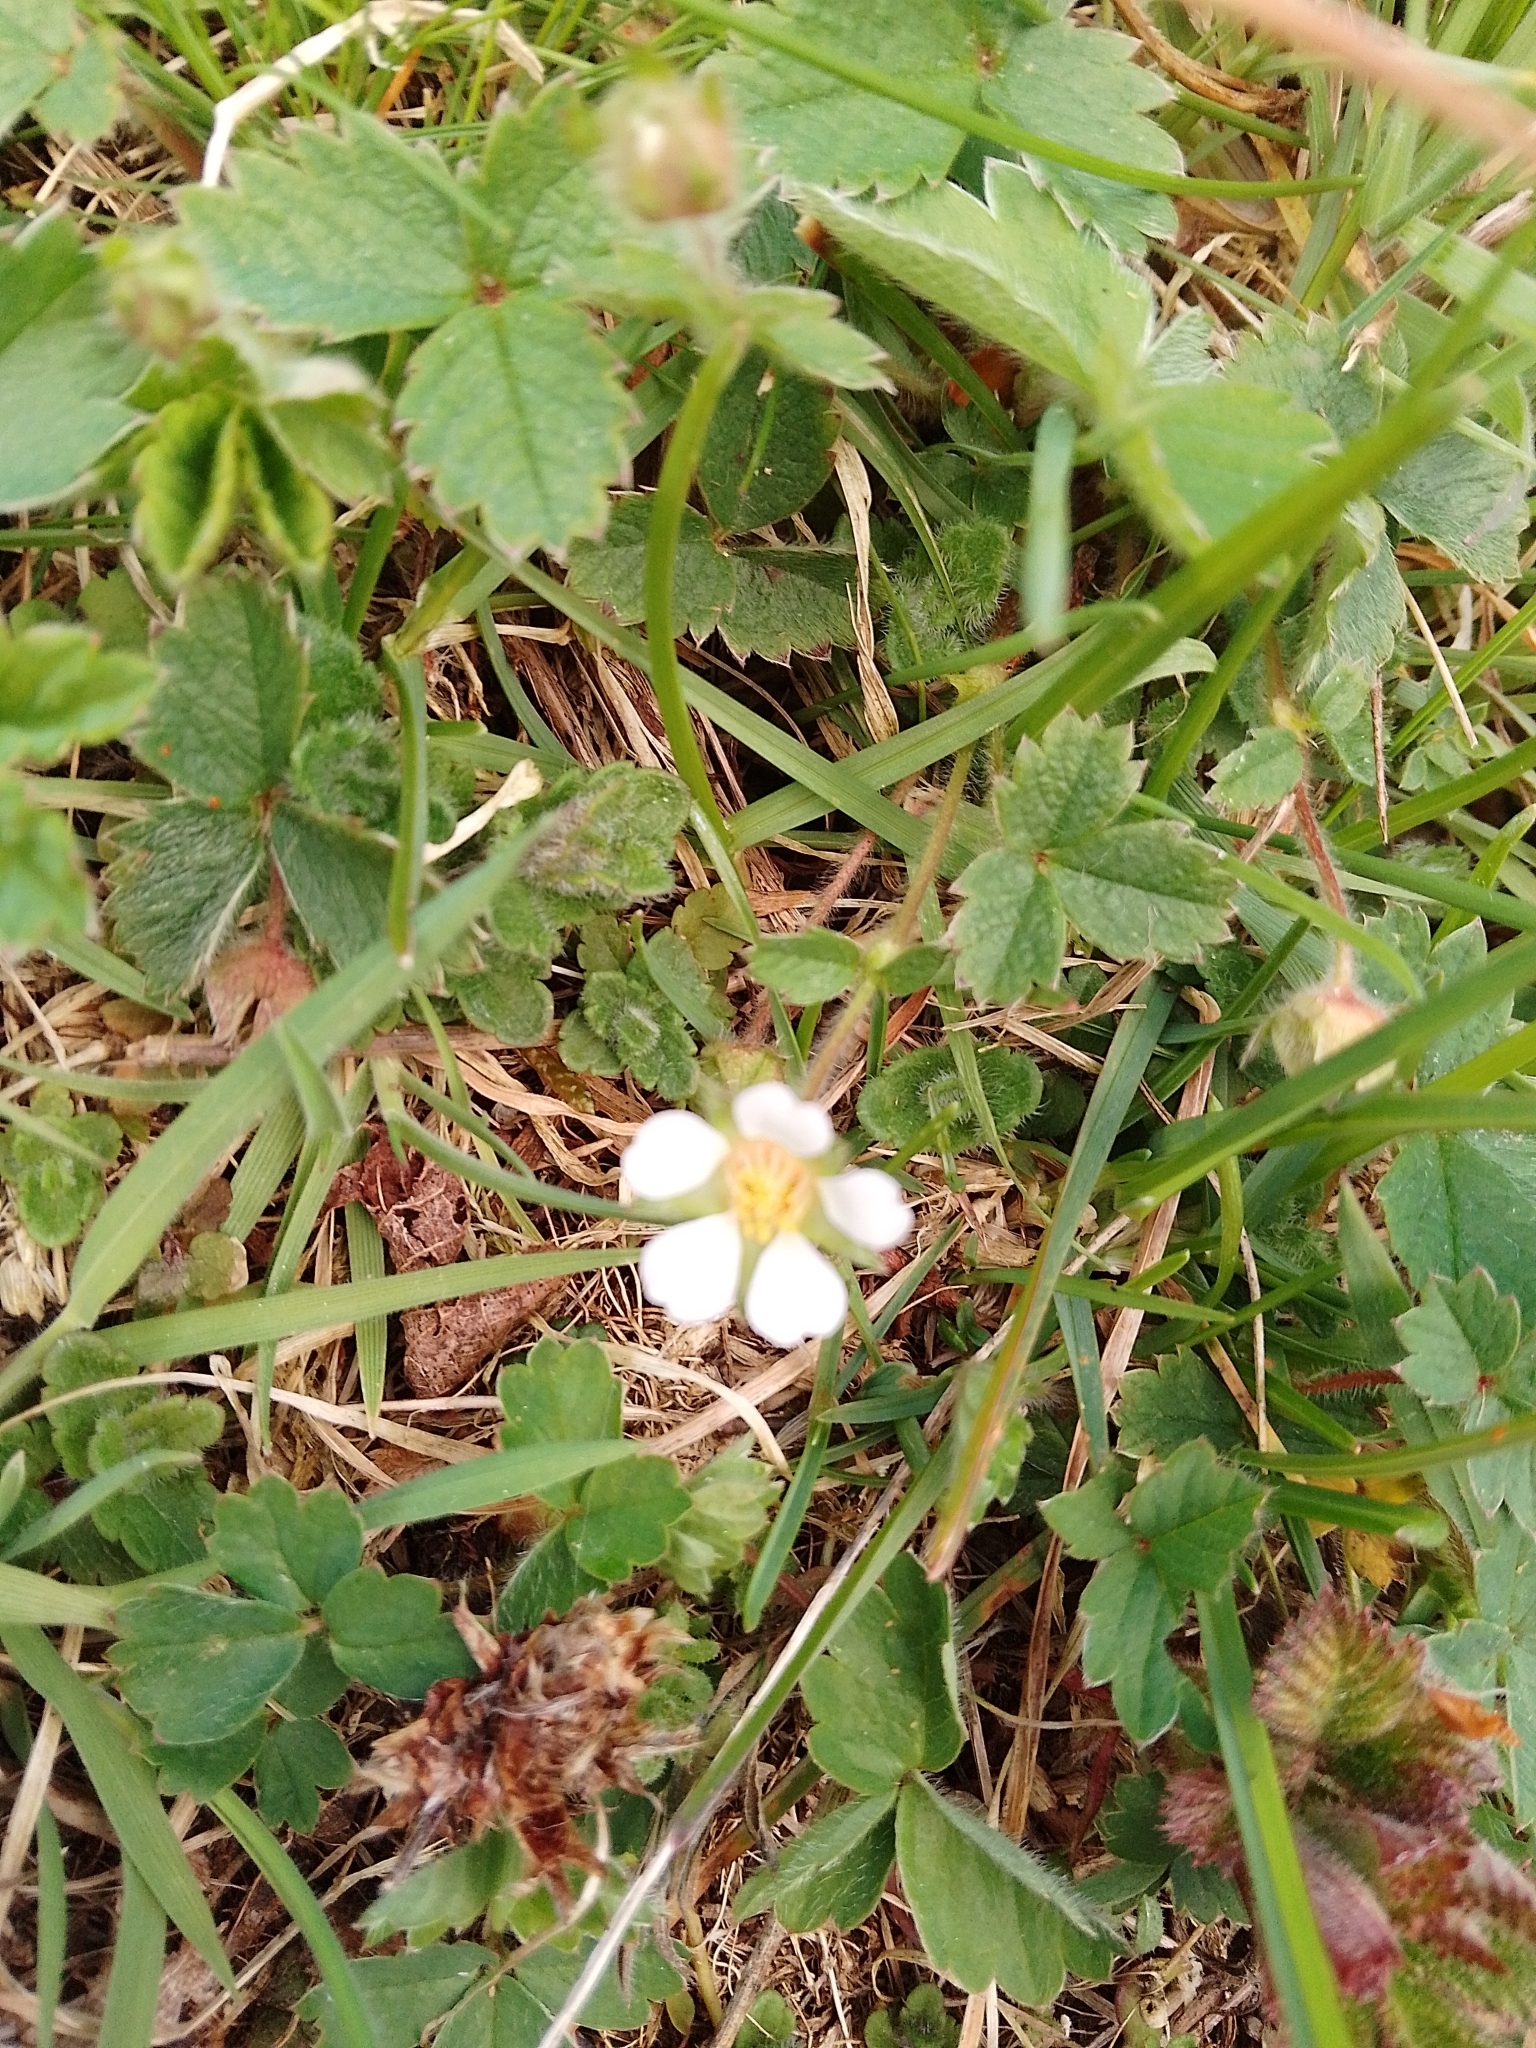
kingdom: Plantae
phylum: Tracheophyta
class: Magnoliopsida
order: Rosales
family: Rosaceae
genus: Potentilla
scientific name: Potentilla sterilis
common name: Barren strawberry
